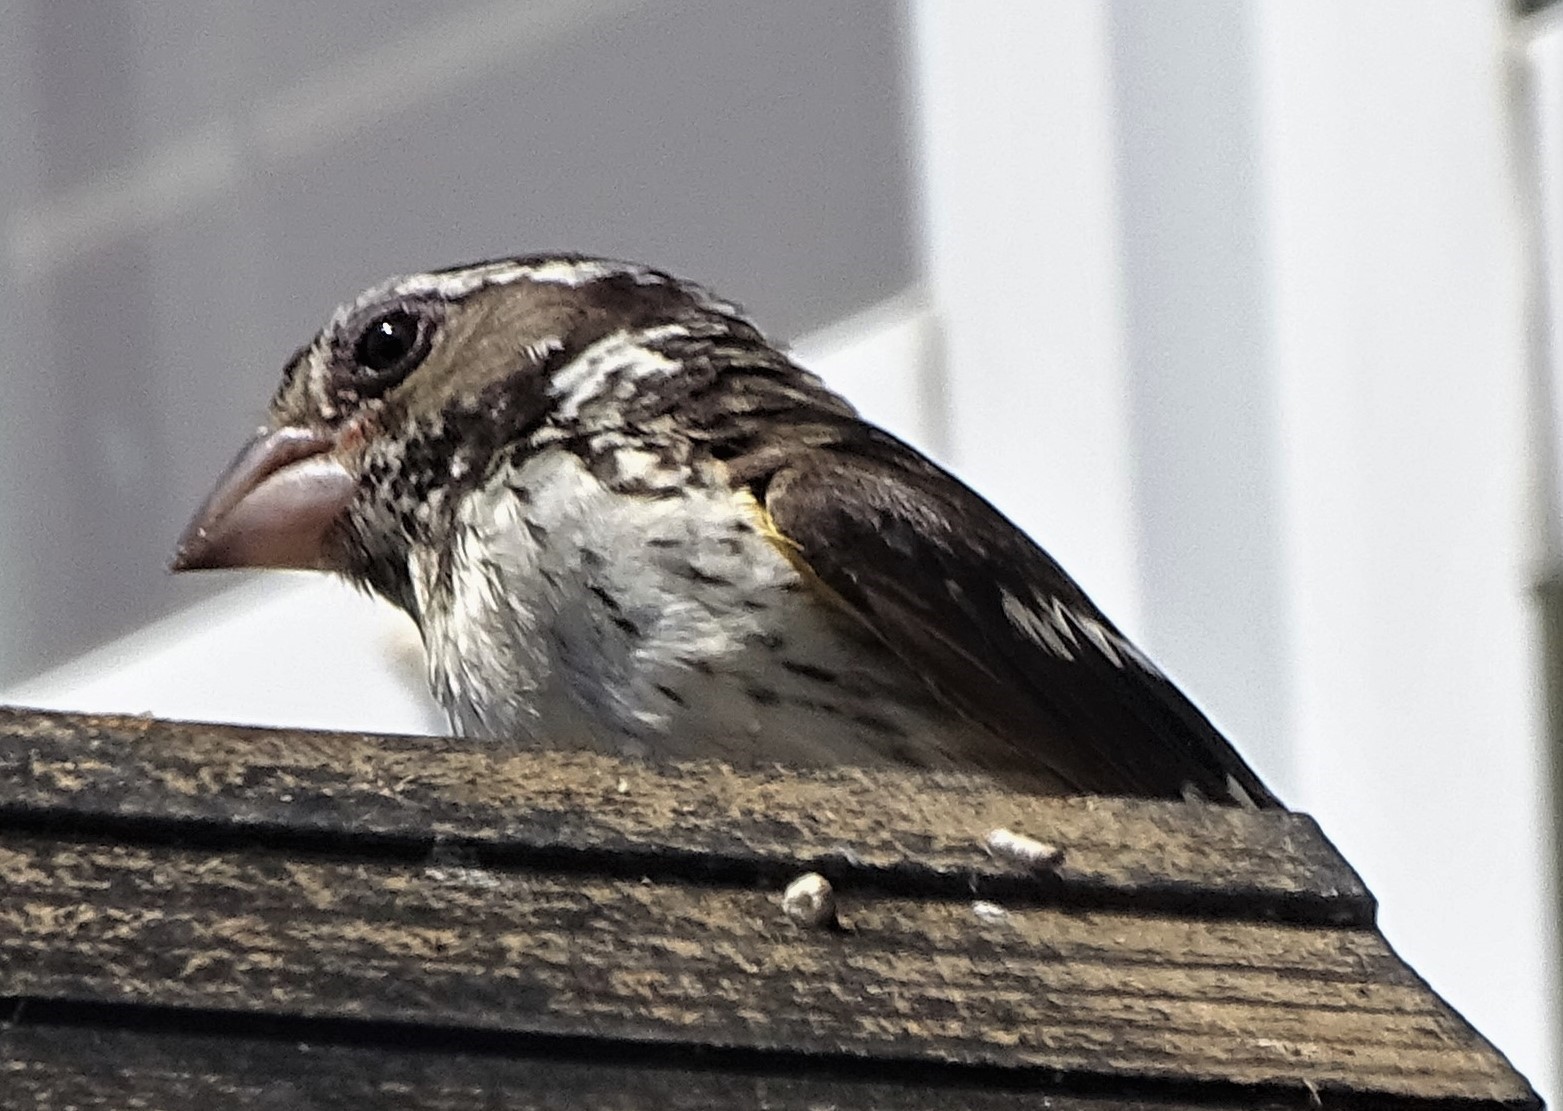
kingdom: Animalia
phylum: Chordata
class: Aves
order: Passeriformes
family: Cardinalidae
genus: Pheucticus
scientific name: Pheucticus ludovicianus
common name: Rose-breasted grosbeak
